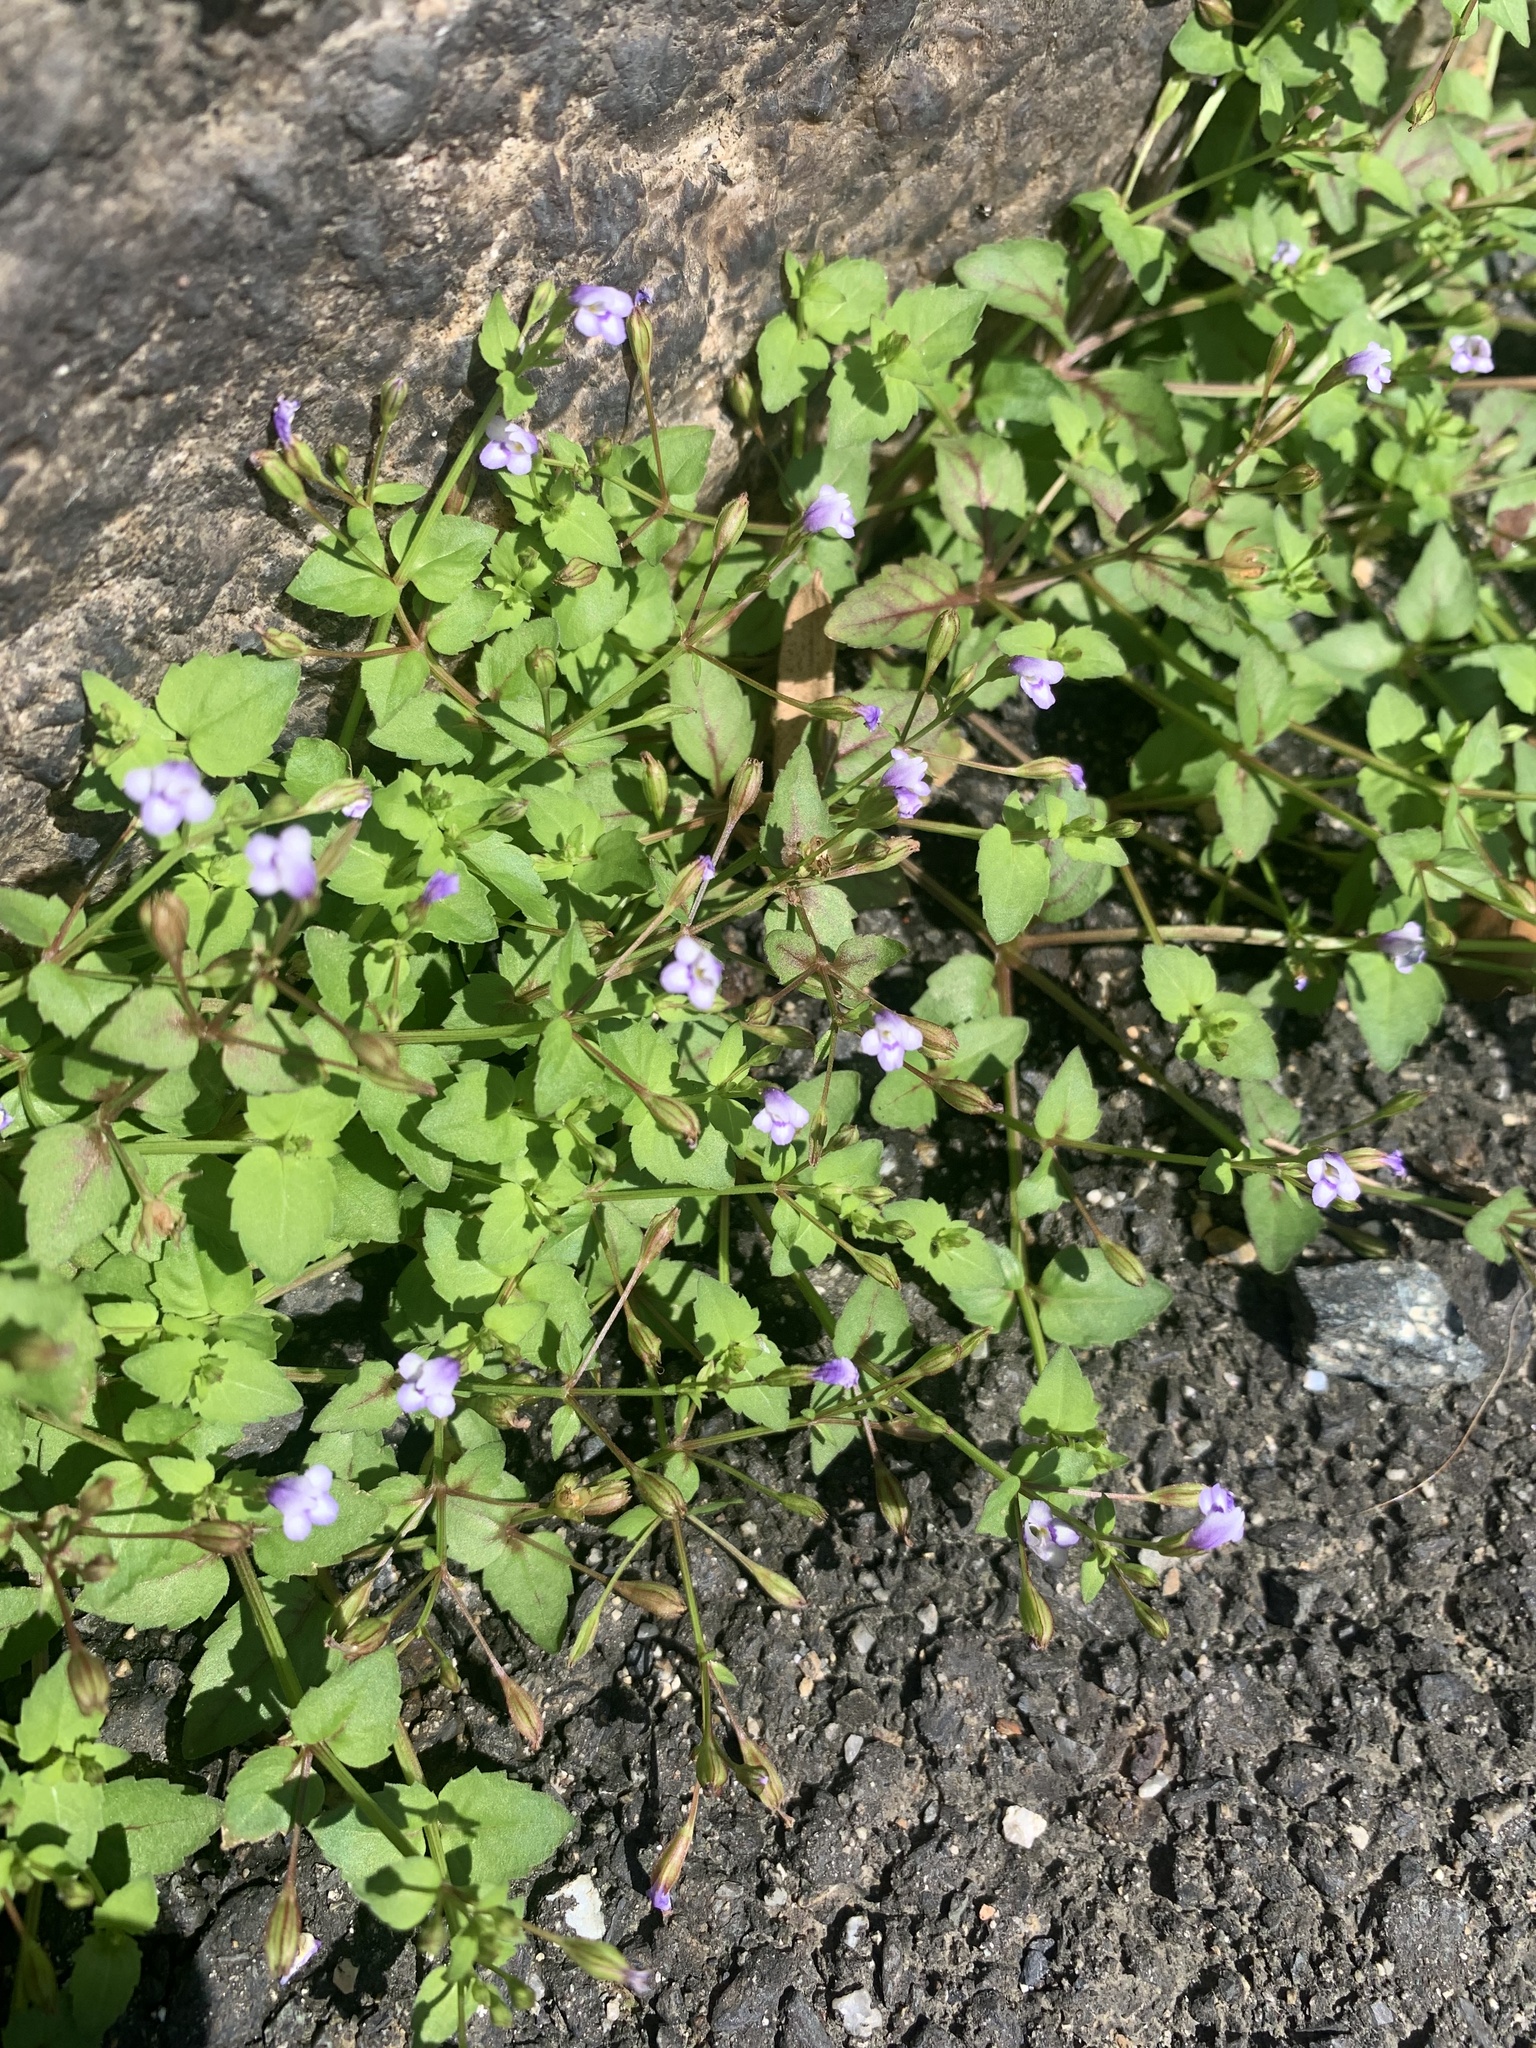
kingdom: Plantae
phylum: Tracheophyta
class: Magnoliopsida
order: Lamiales
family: Linderniaceae
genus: Torenia
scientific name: Torenia crustacea
